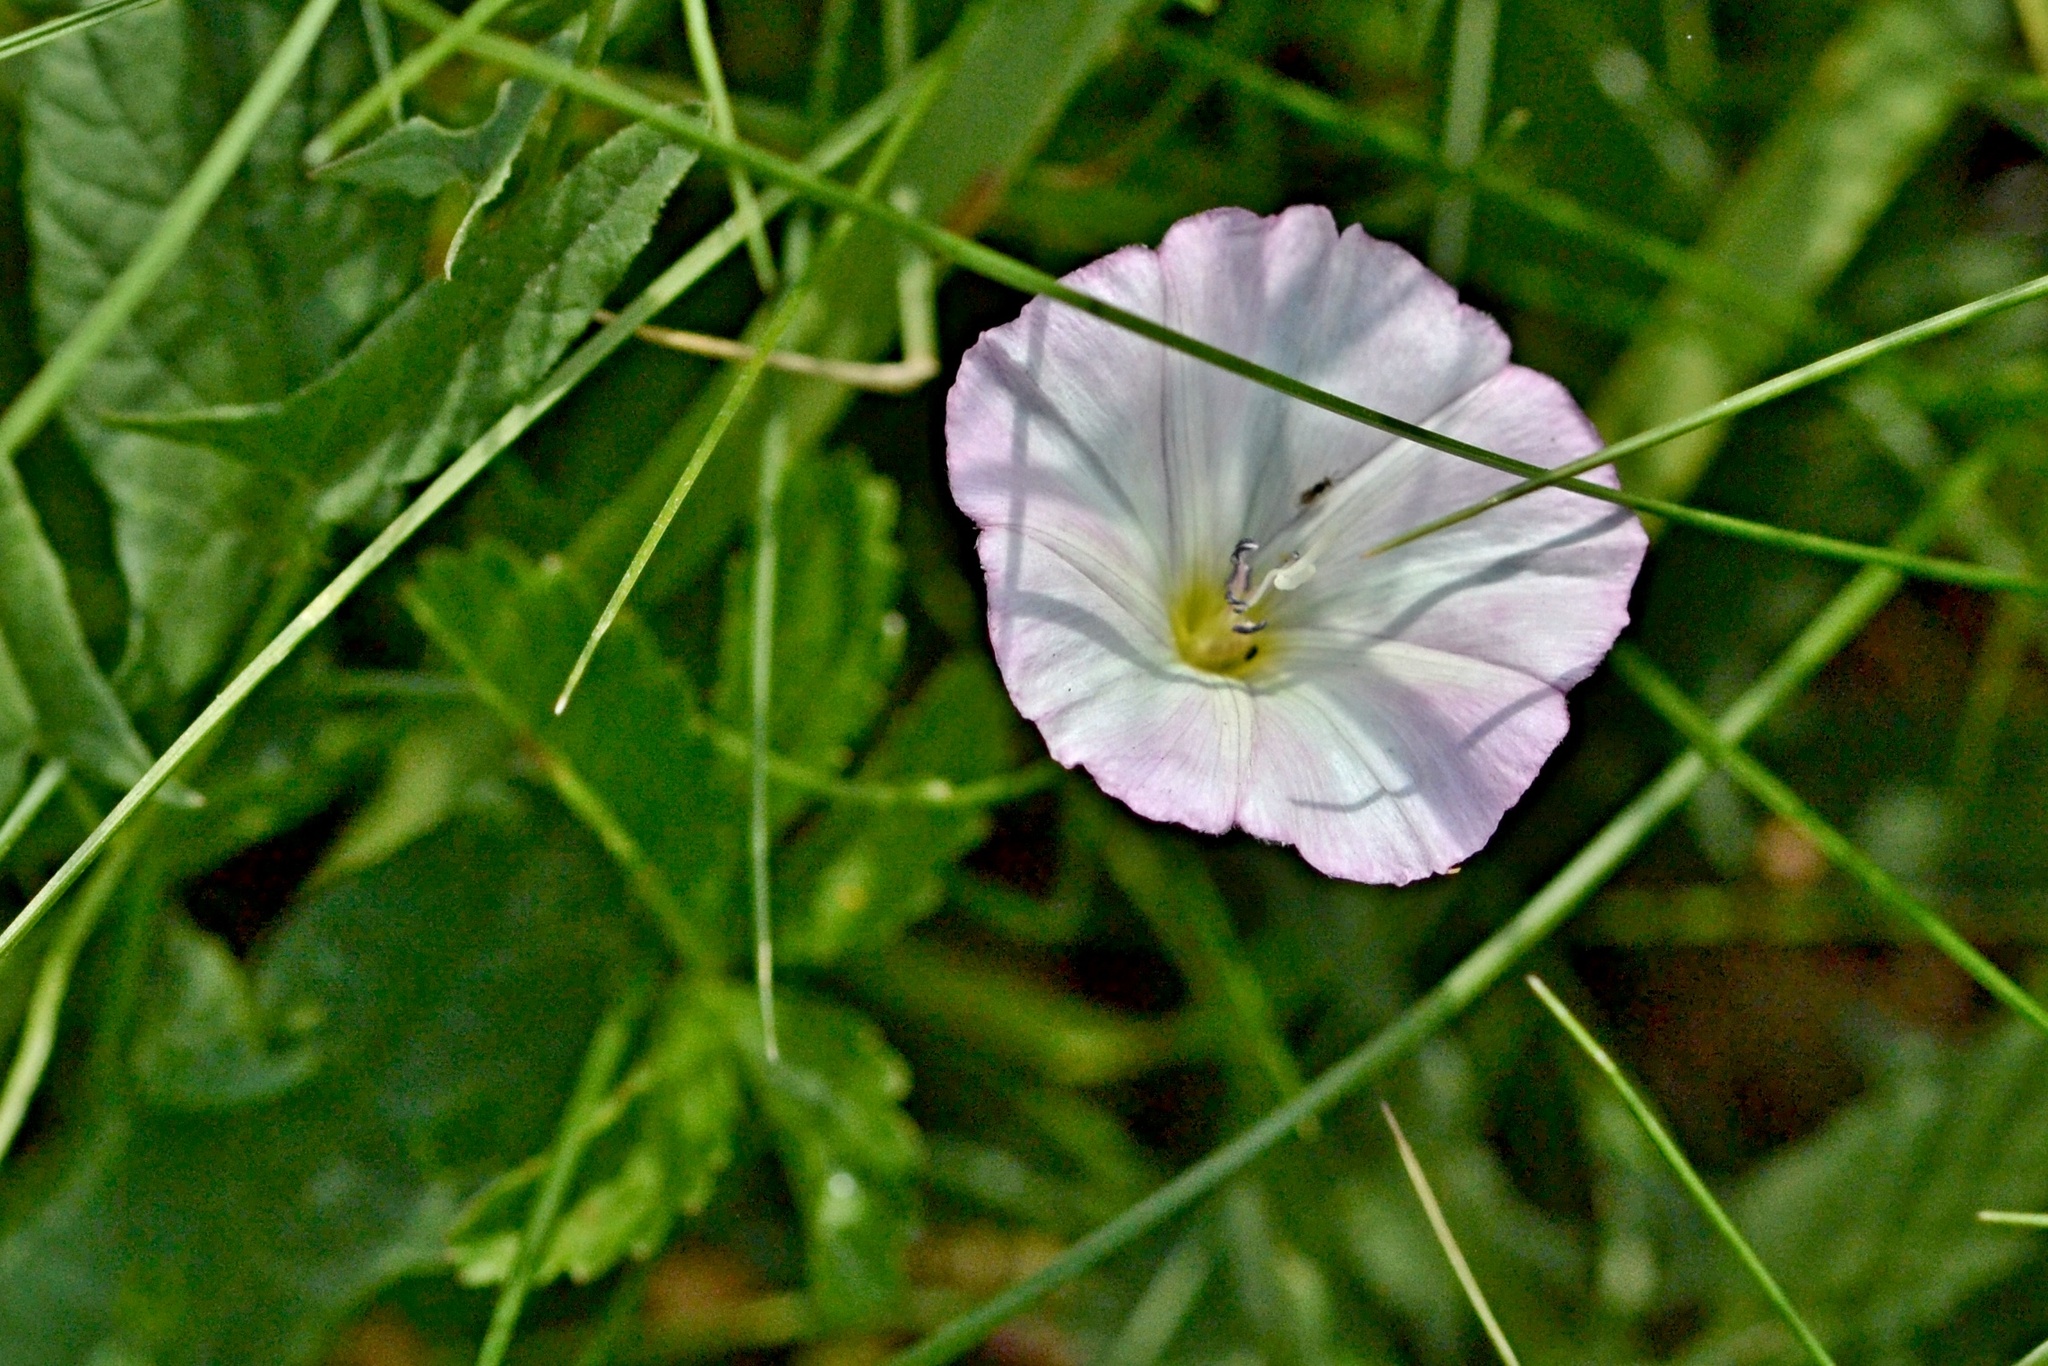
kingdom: Plantae
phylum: Tracheophyta
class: Magnoliopsida
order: Solanales
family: Convolvulaceae
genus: Convolvulus
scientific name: Convolvulus arvensis
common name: Field bindweed
